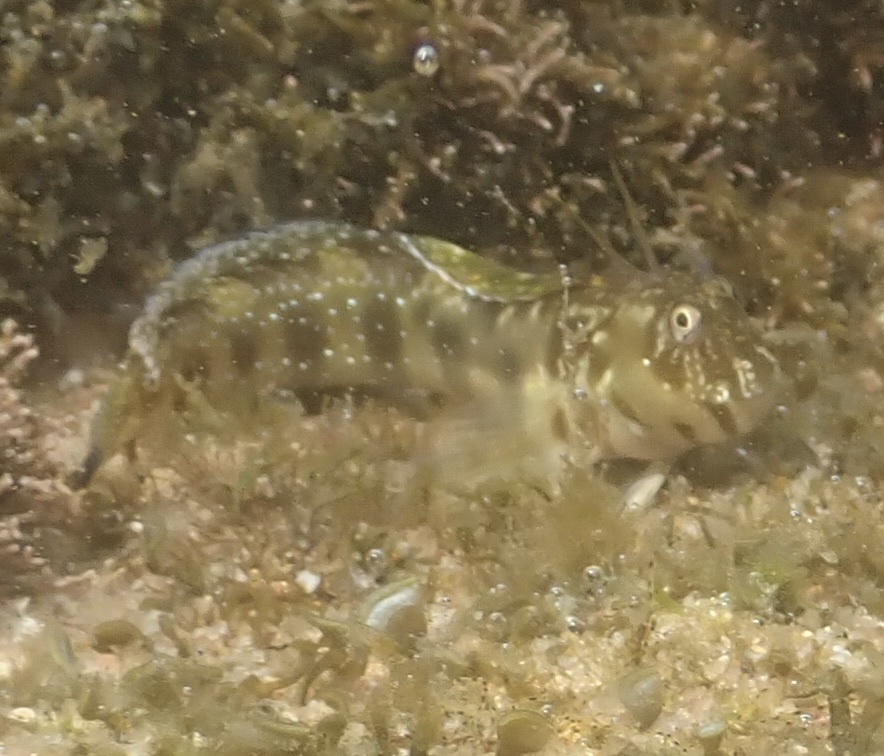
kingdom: Animalia
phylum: Chordata
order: Perciformes
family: Blenniidae
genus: Antennablennius
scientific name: Antennablennius bifilum
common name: Horned rockskipper
